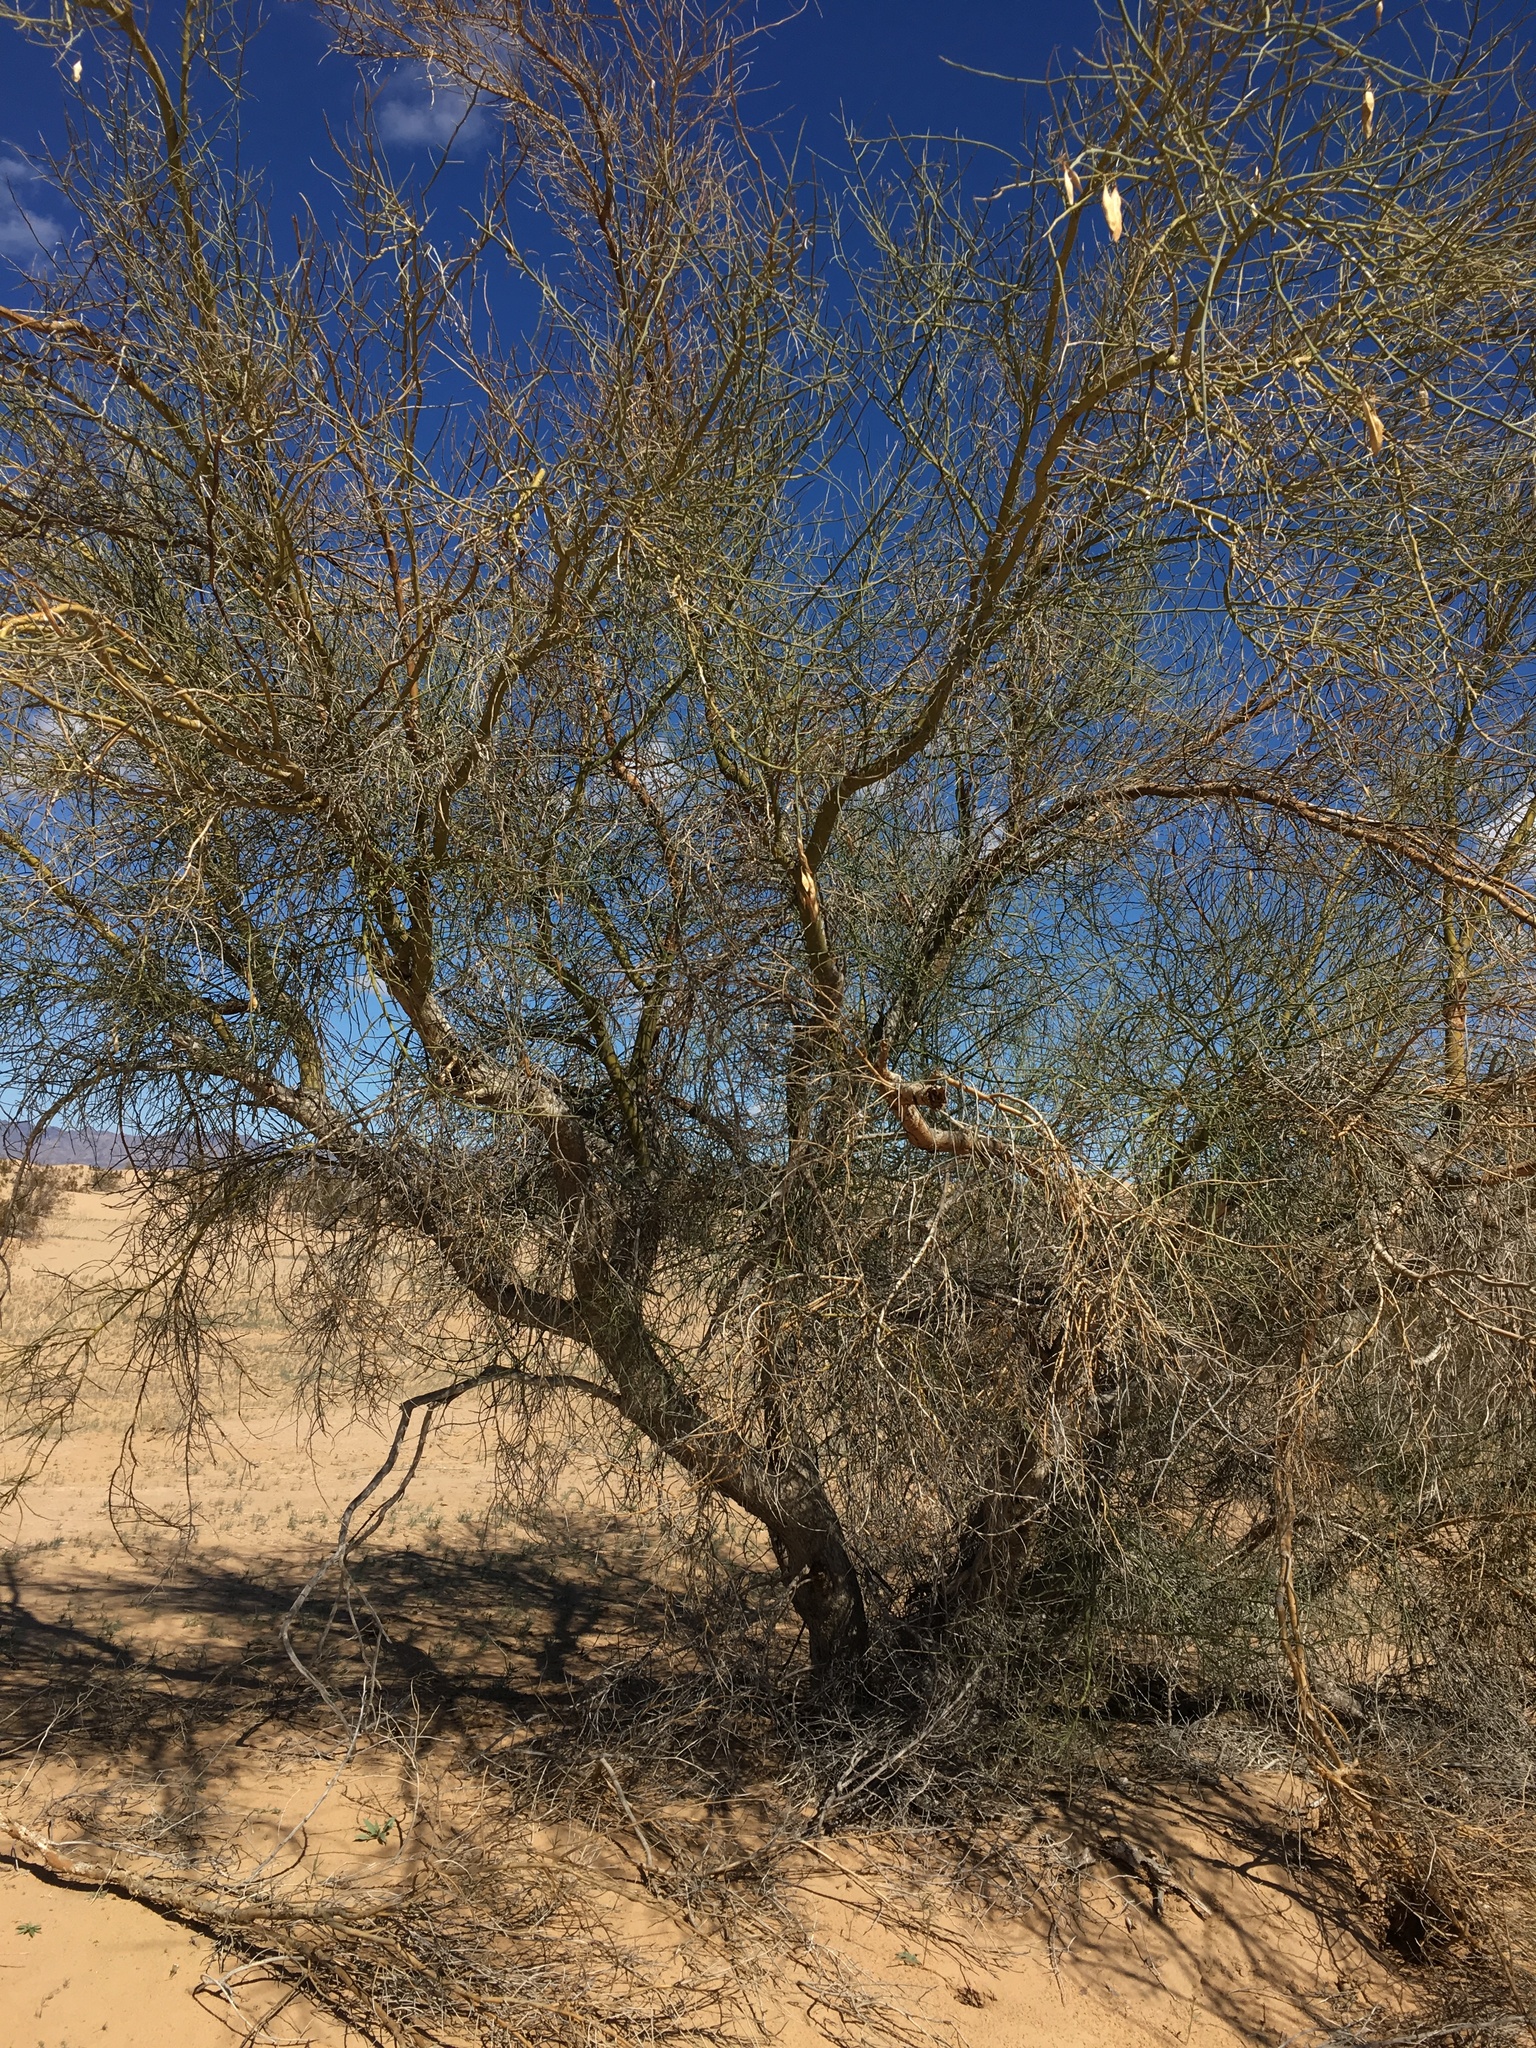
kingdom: Plantae
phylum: Tracheophyta
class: Magnoliopsida
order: Fabales
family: Fabaceae
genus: Parkinsonia
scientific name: Parkinsonia florida
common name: Blue paloverde
